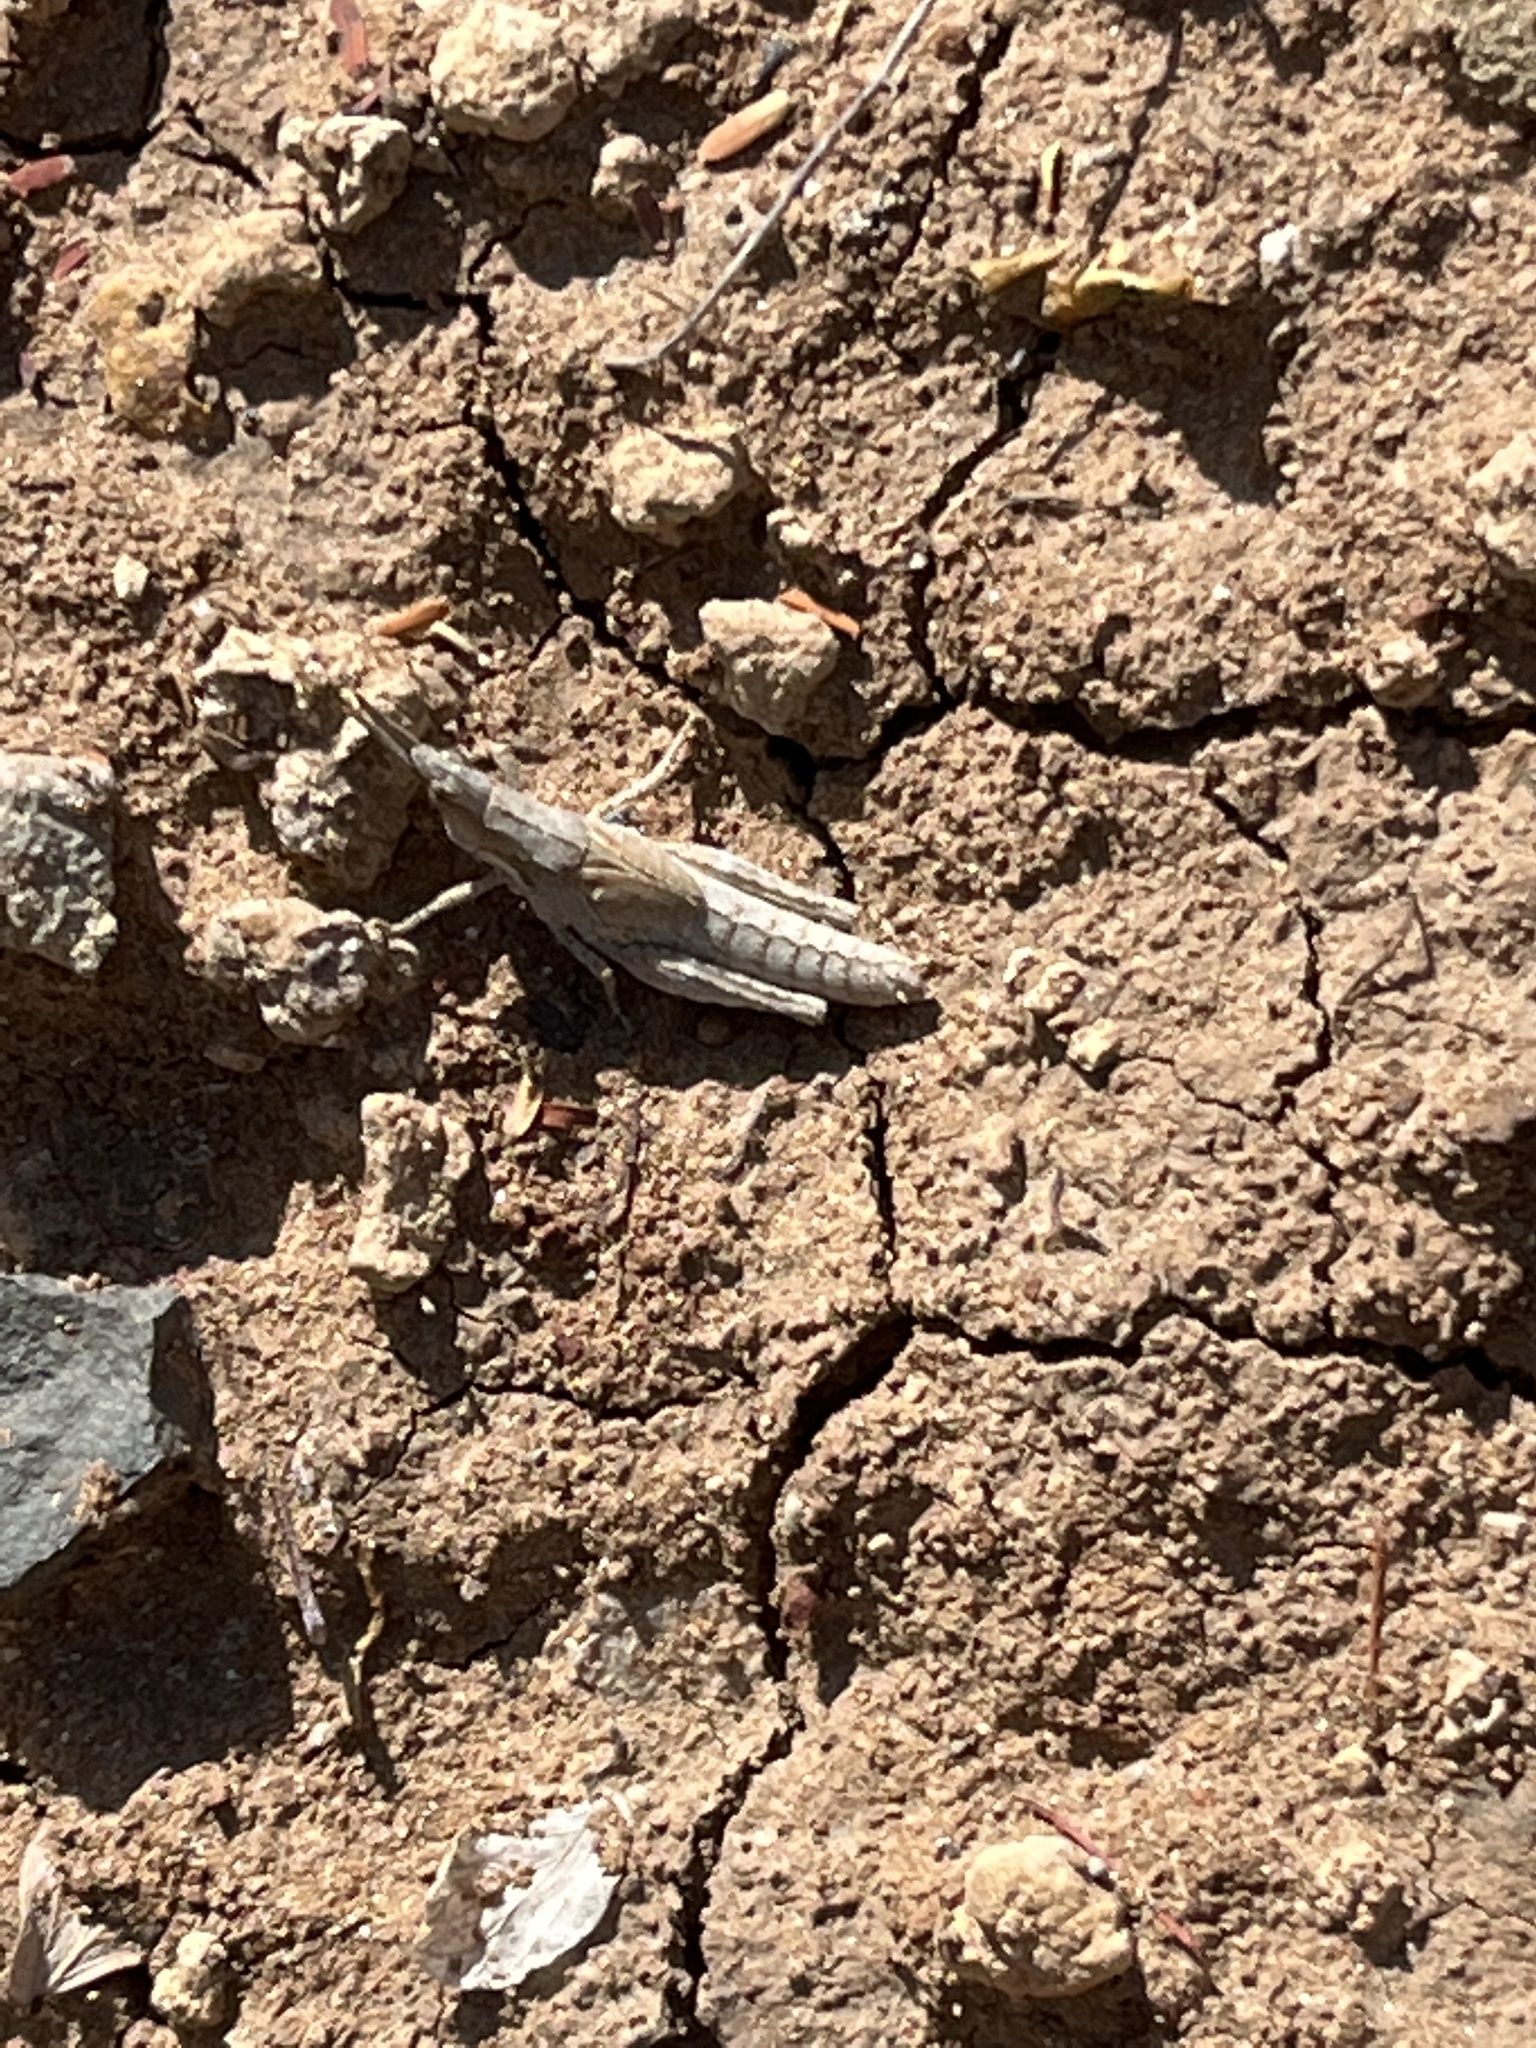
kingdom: Animalia
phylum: Arthropoda
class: Insecta
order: Orthoptera
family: Pyrgomorphidae
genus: Pyrgomorpha
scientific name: Pyrgomorpha conica
